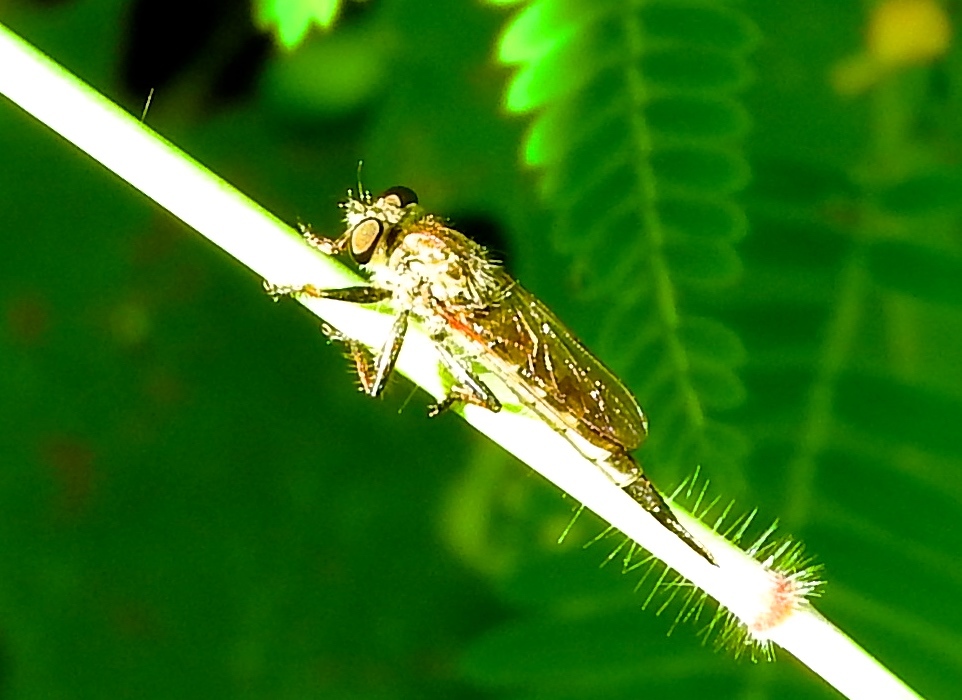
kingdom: Animalia
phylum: Arthropoda
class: Insecta
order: Diptera
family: Asilidae
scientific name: Asilidae
